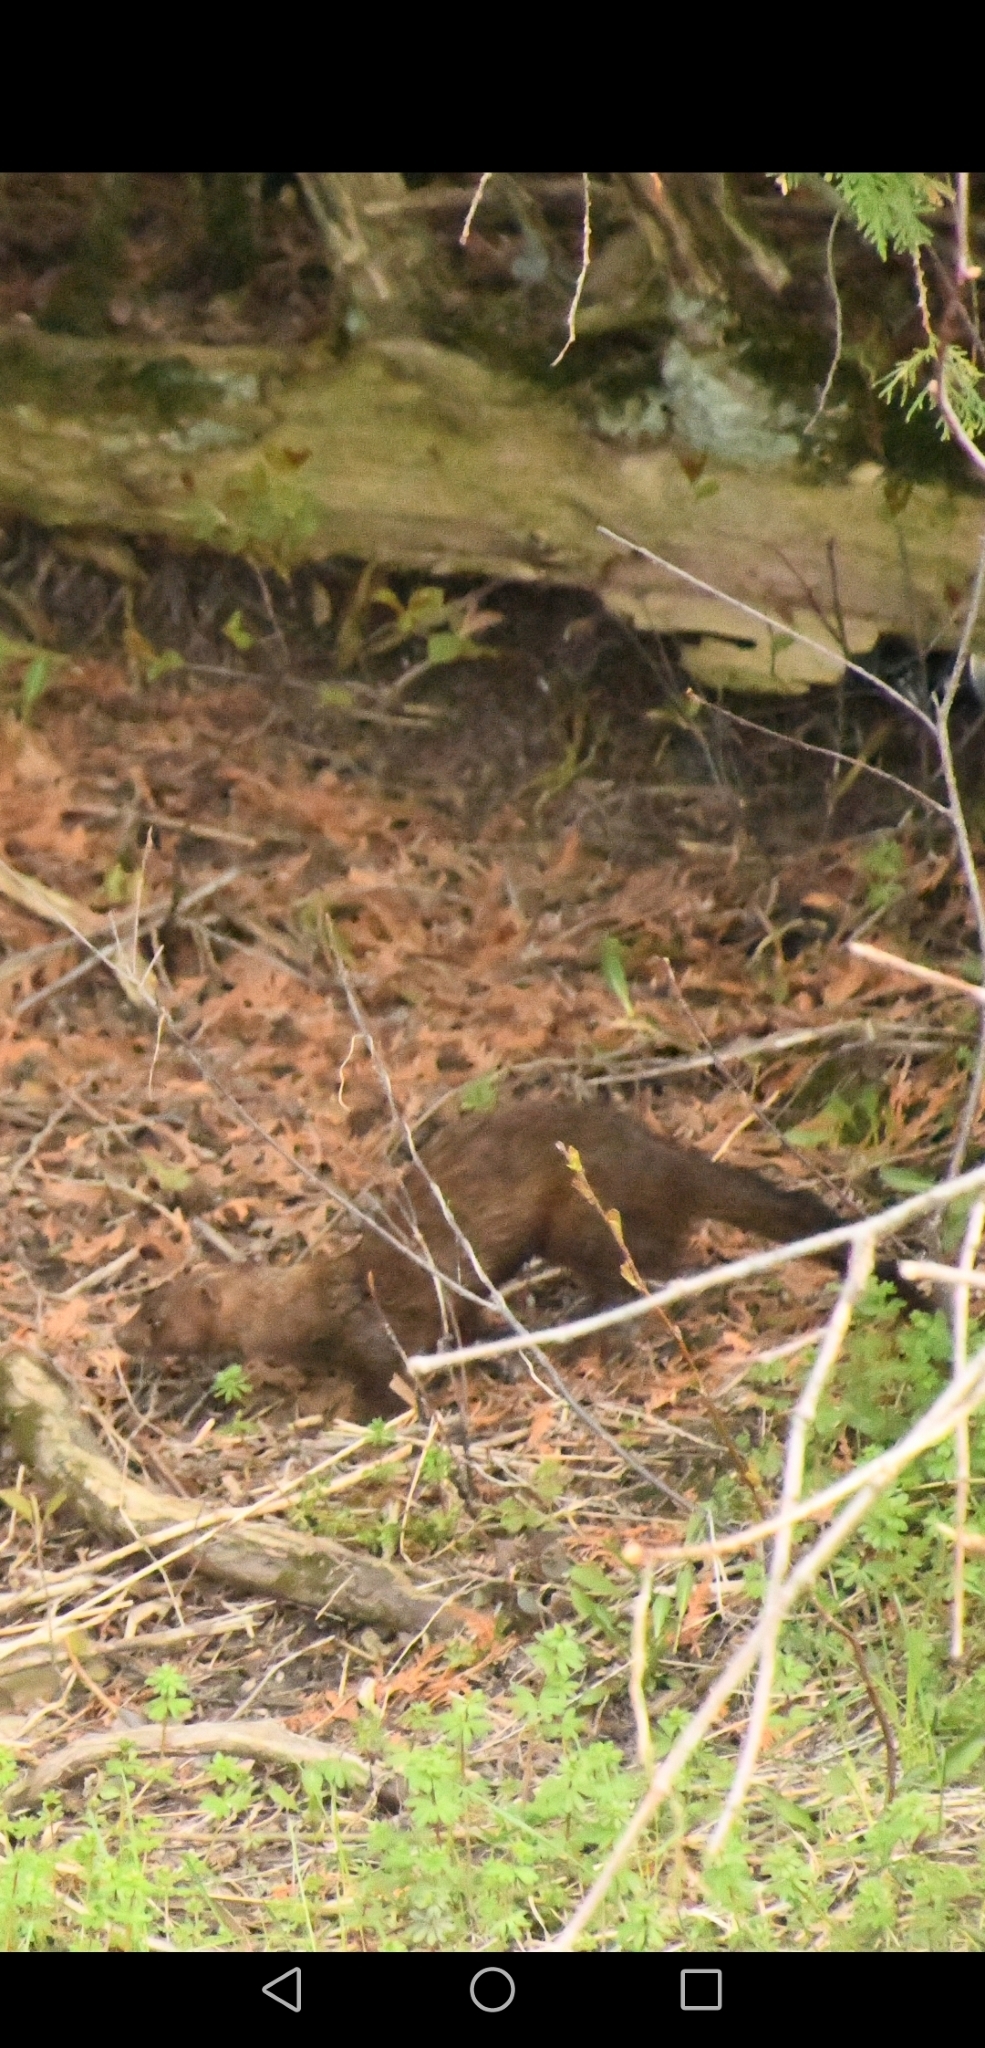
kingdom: Animalia
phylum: Chordata
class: Mammalia
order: Carnivora
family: Mustelidae
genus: Mustela
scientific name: Mustela
